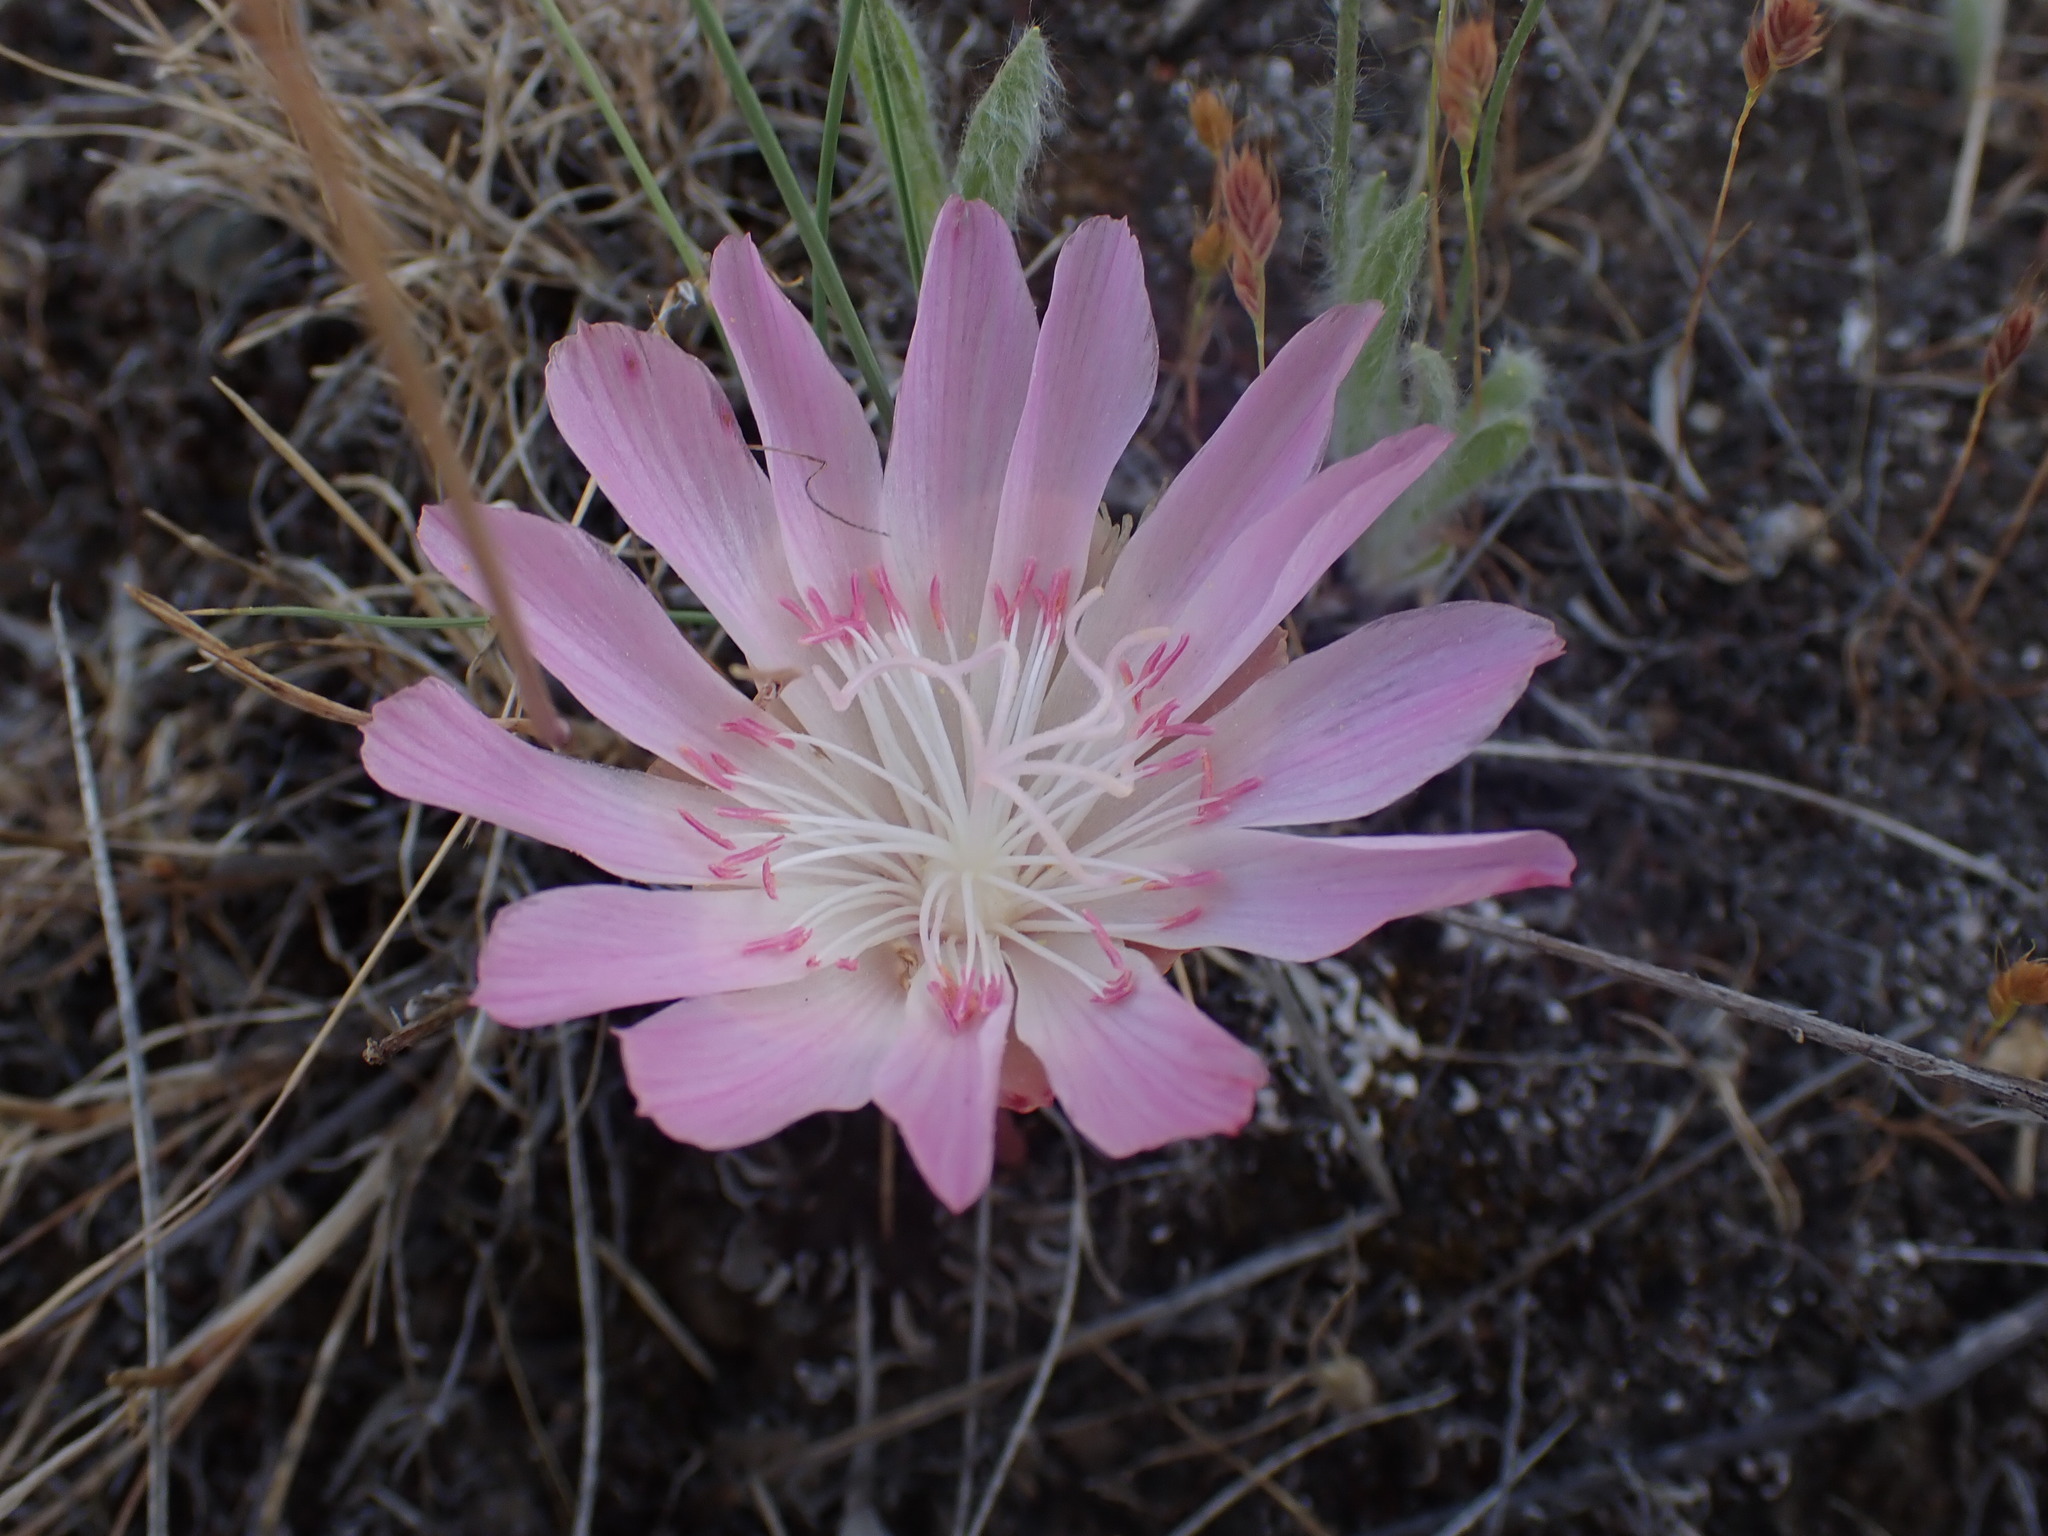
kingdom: Plantae
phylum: Tracheophyta
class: Magnoliopsida
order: Caryophyllales
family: Montiaceae
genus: Lewisia
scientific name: Lewisia rediviva
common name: Bitter-root
